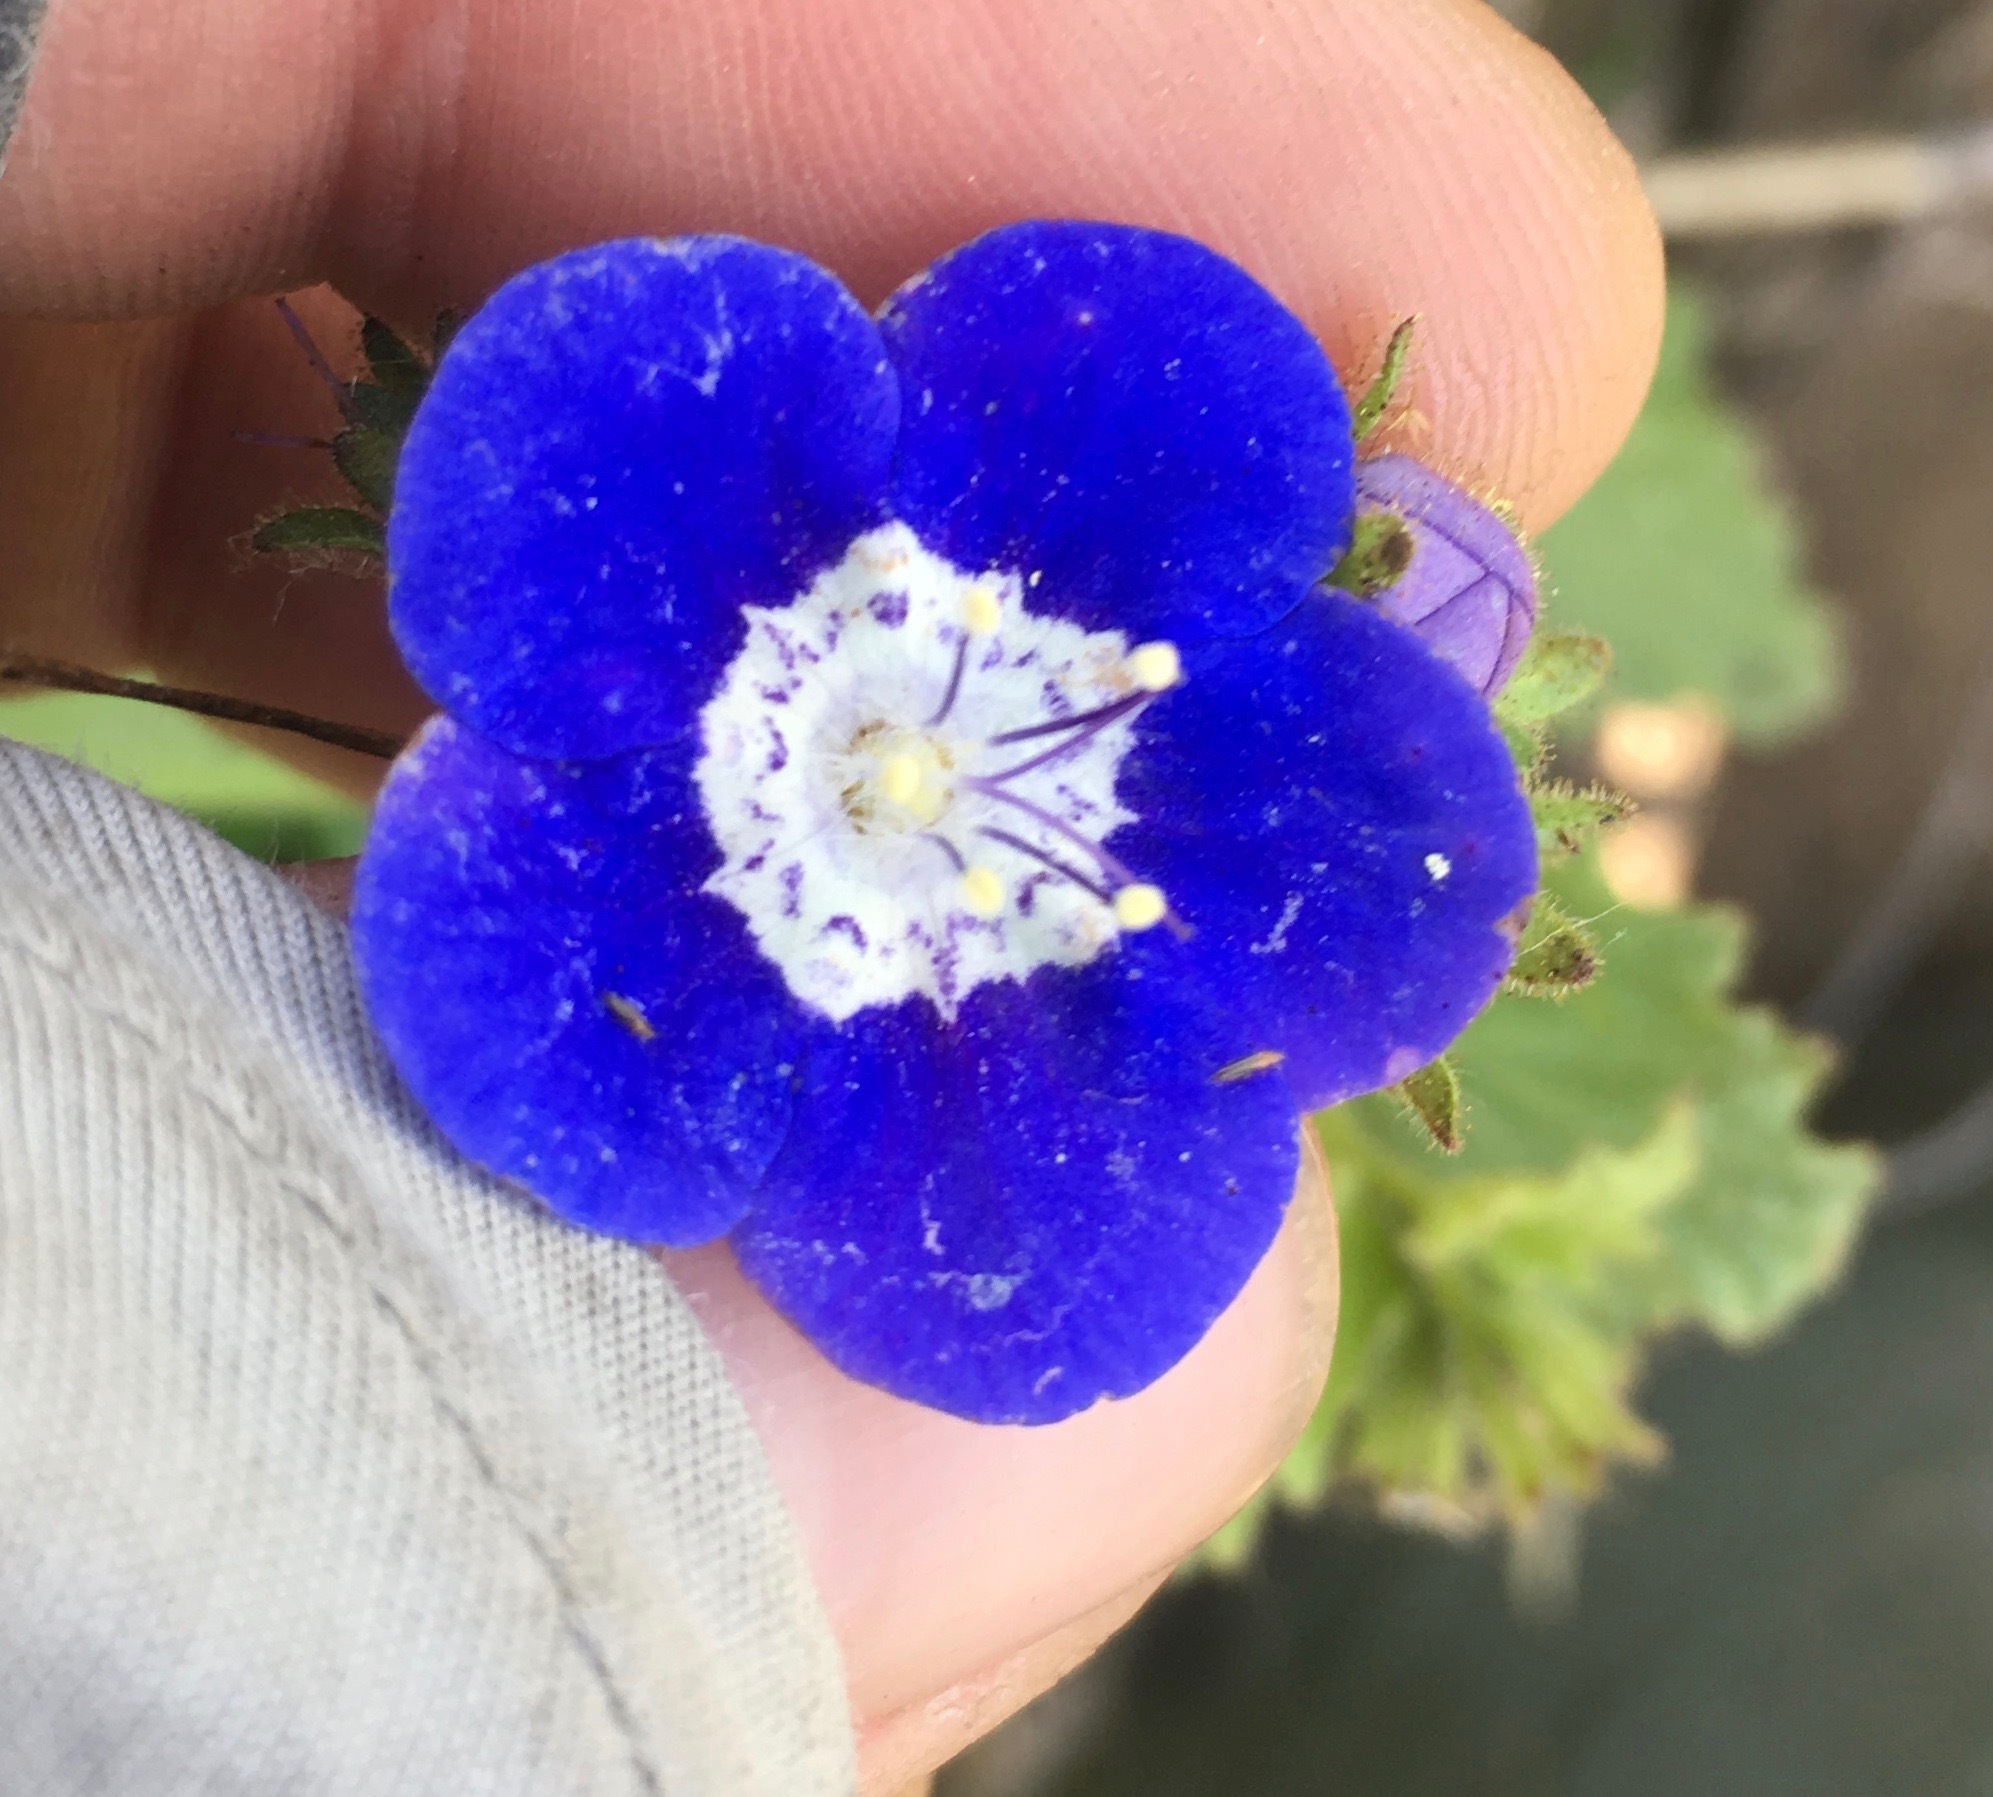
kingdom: Plantae
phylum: Tracheophyta
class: Magnoliopsida
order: Boraginales
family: Hydrophyllaceae
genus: Phacelia
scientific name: Phacelia viscida
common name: Sticky phacelia
